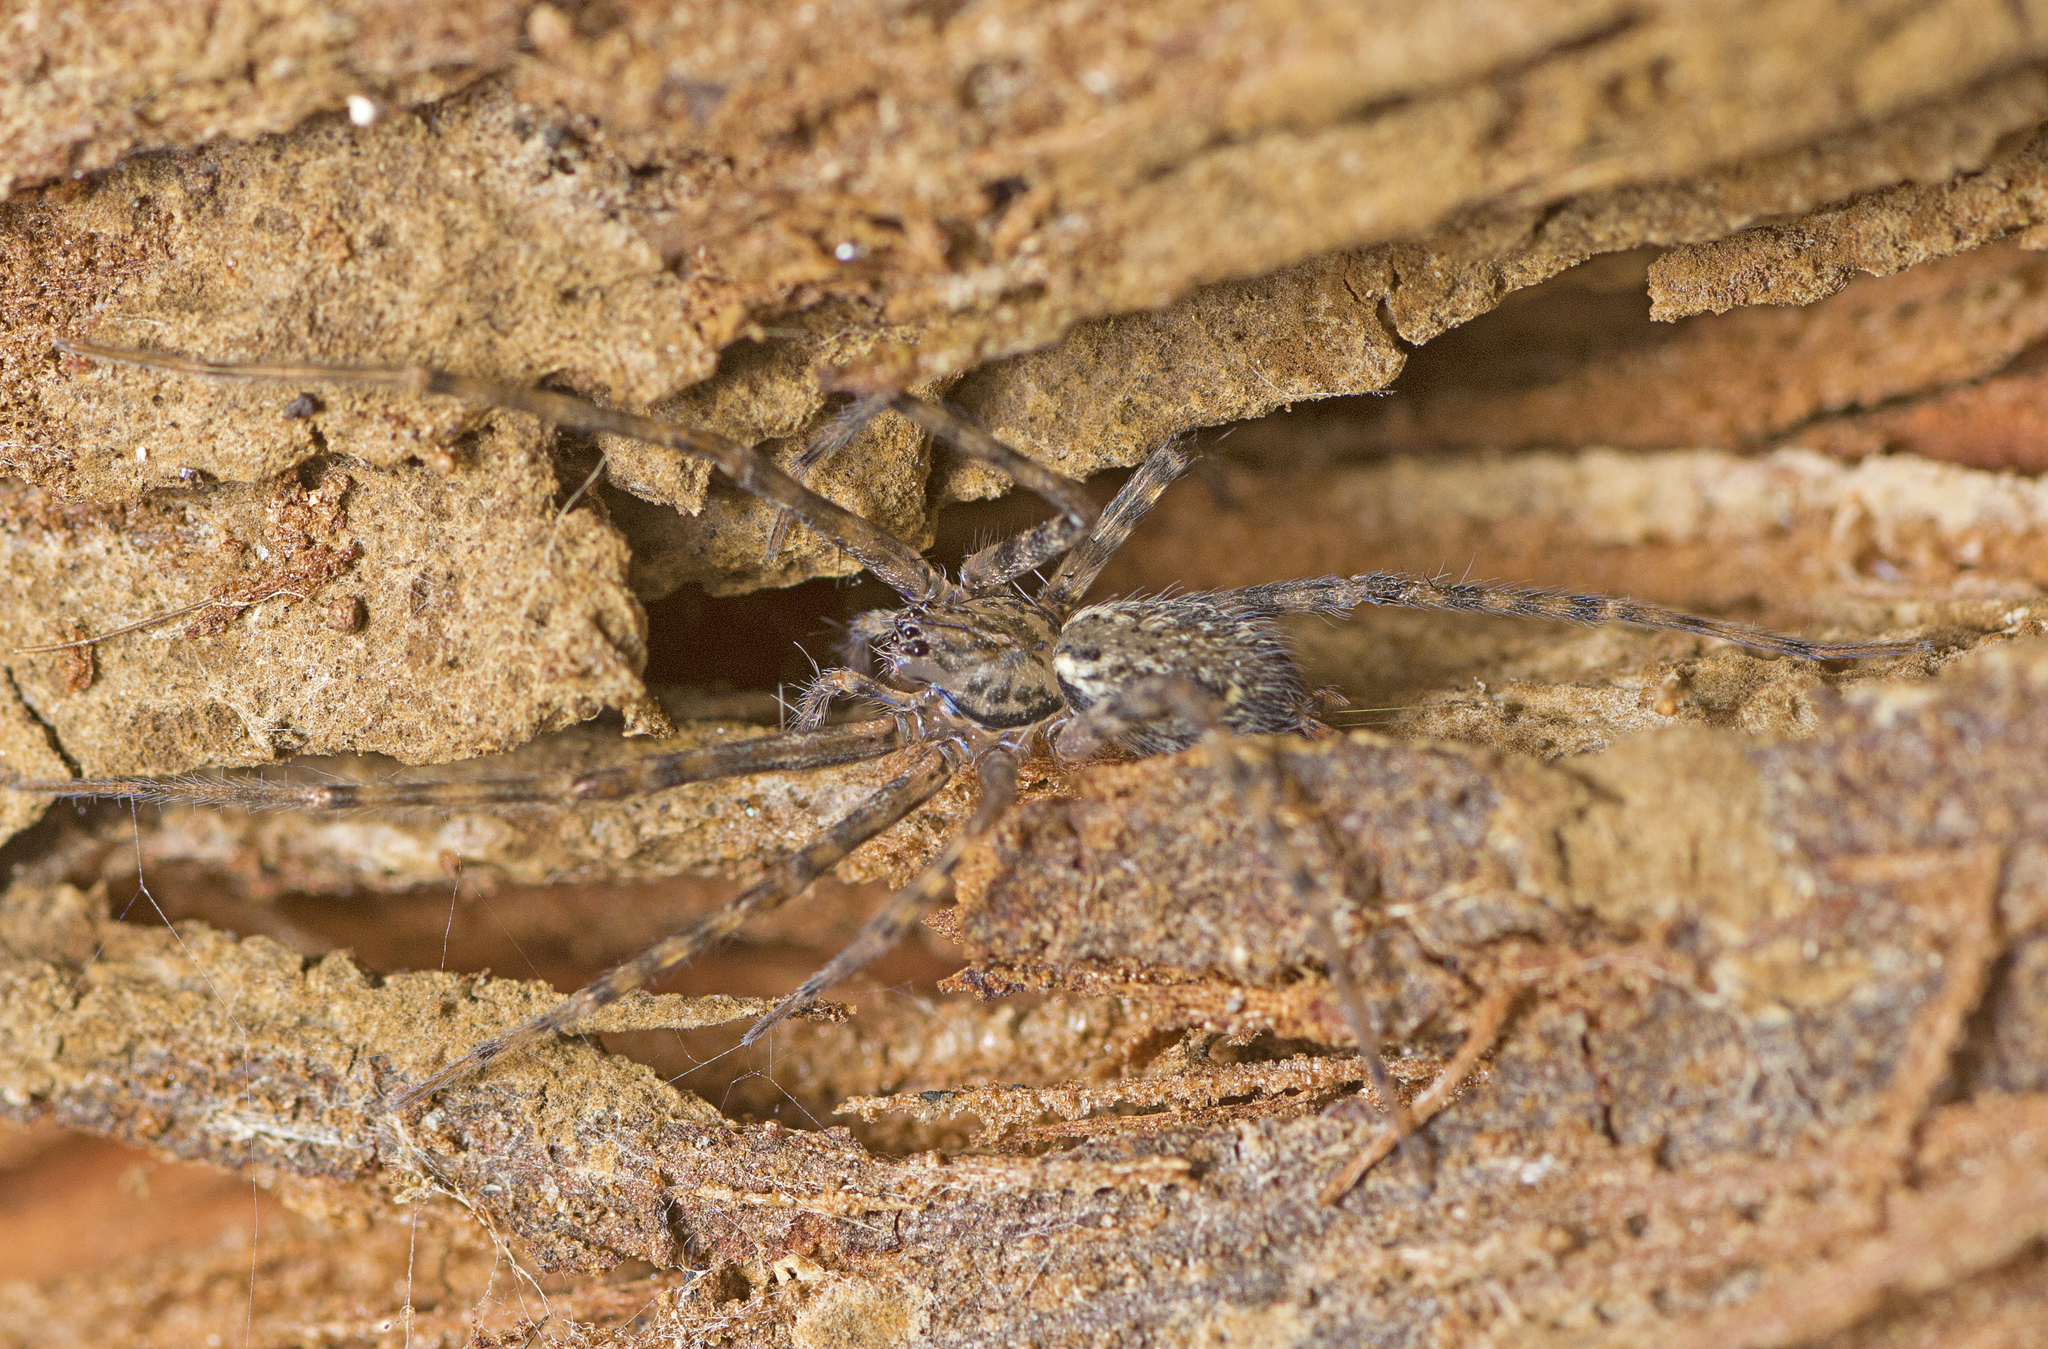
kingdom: Animalia
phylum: Arthropoda
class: Arachnida
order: Araneae
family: Stiphidiidae
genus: Stiphidion
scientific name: Stiphidion facetum
